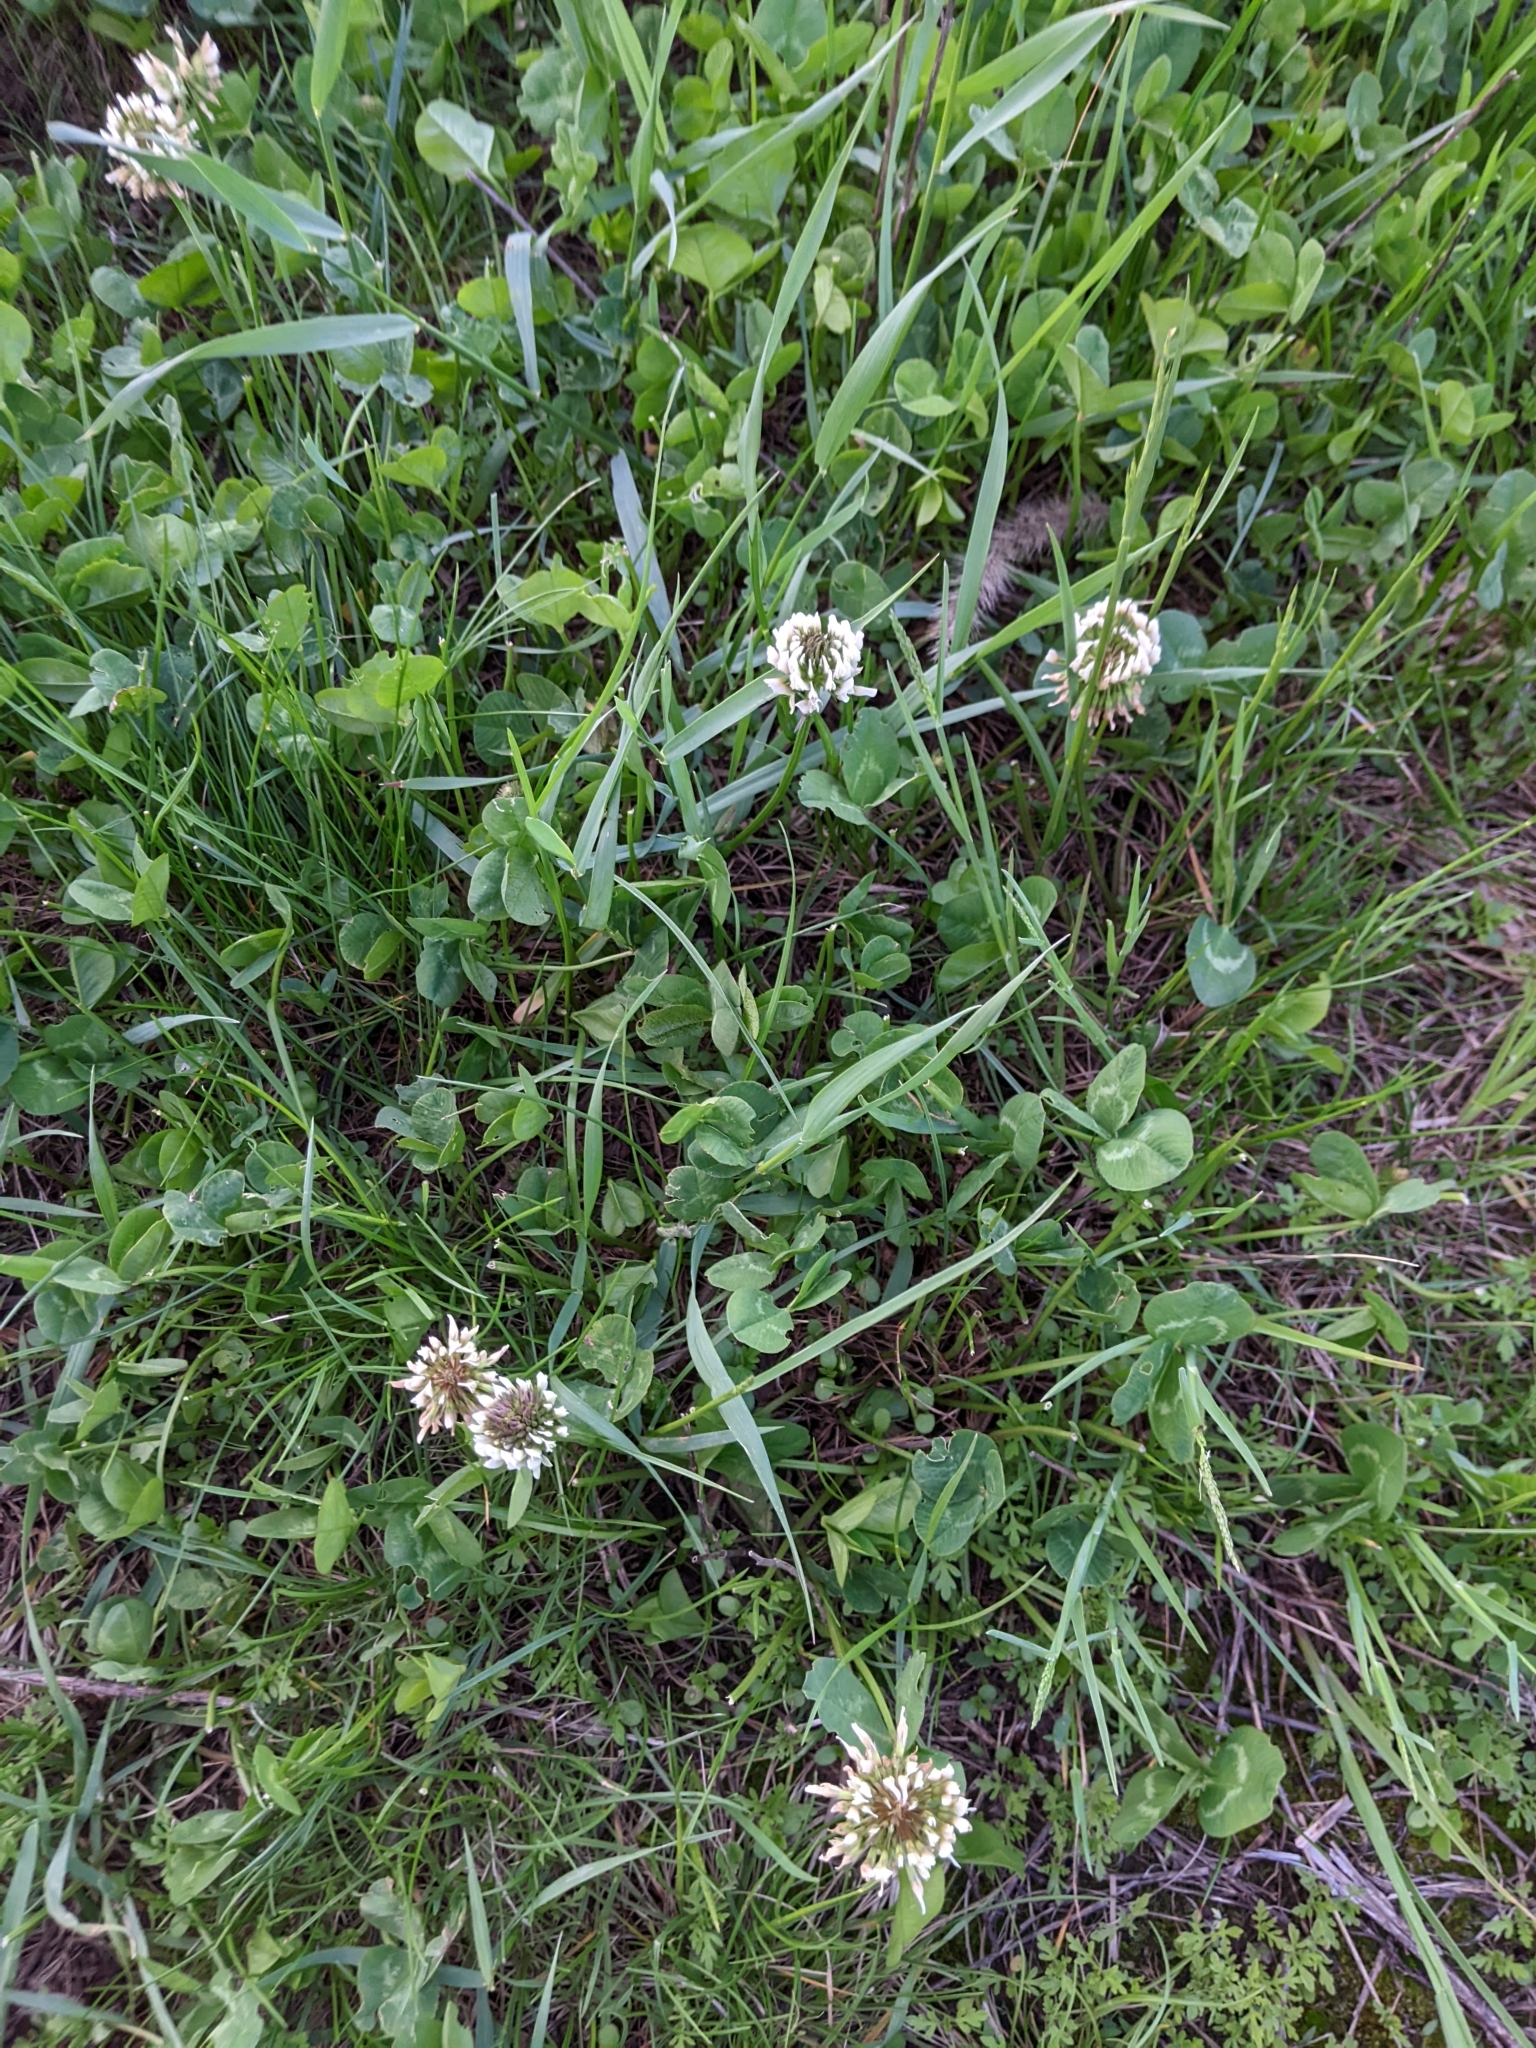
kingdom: Plantae
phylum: Tracheophyta
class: Magnoliopsida
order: Fabales
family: Fabaceae
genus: Trifolium
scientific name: Trifolium repens
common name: White clover
